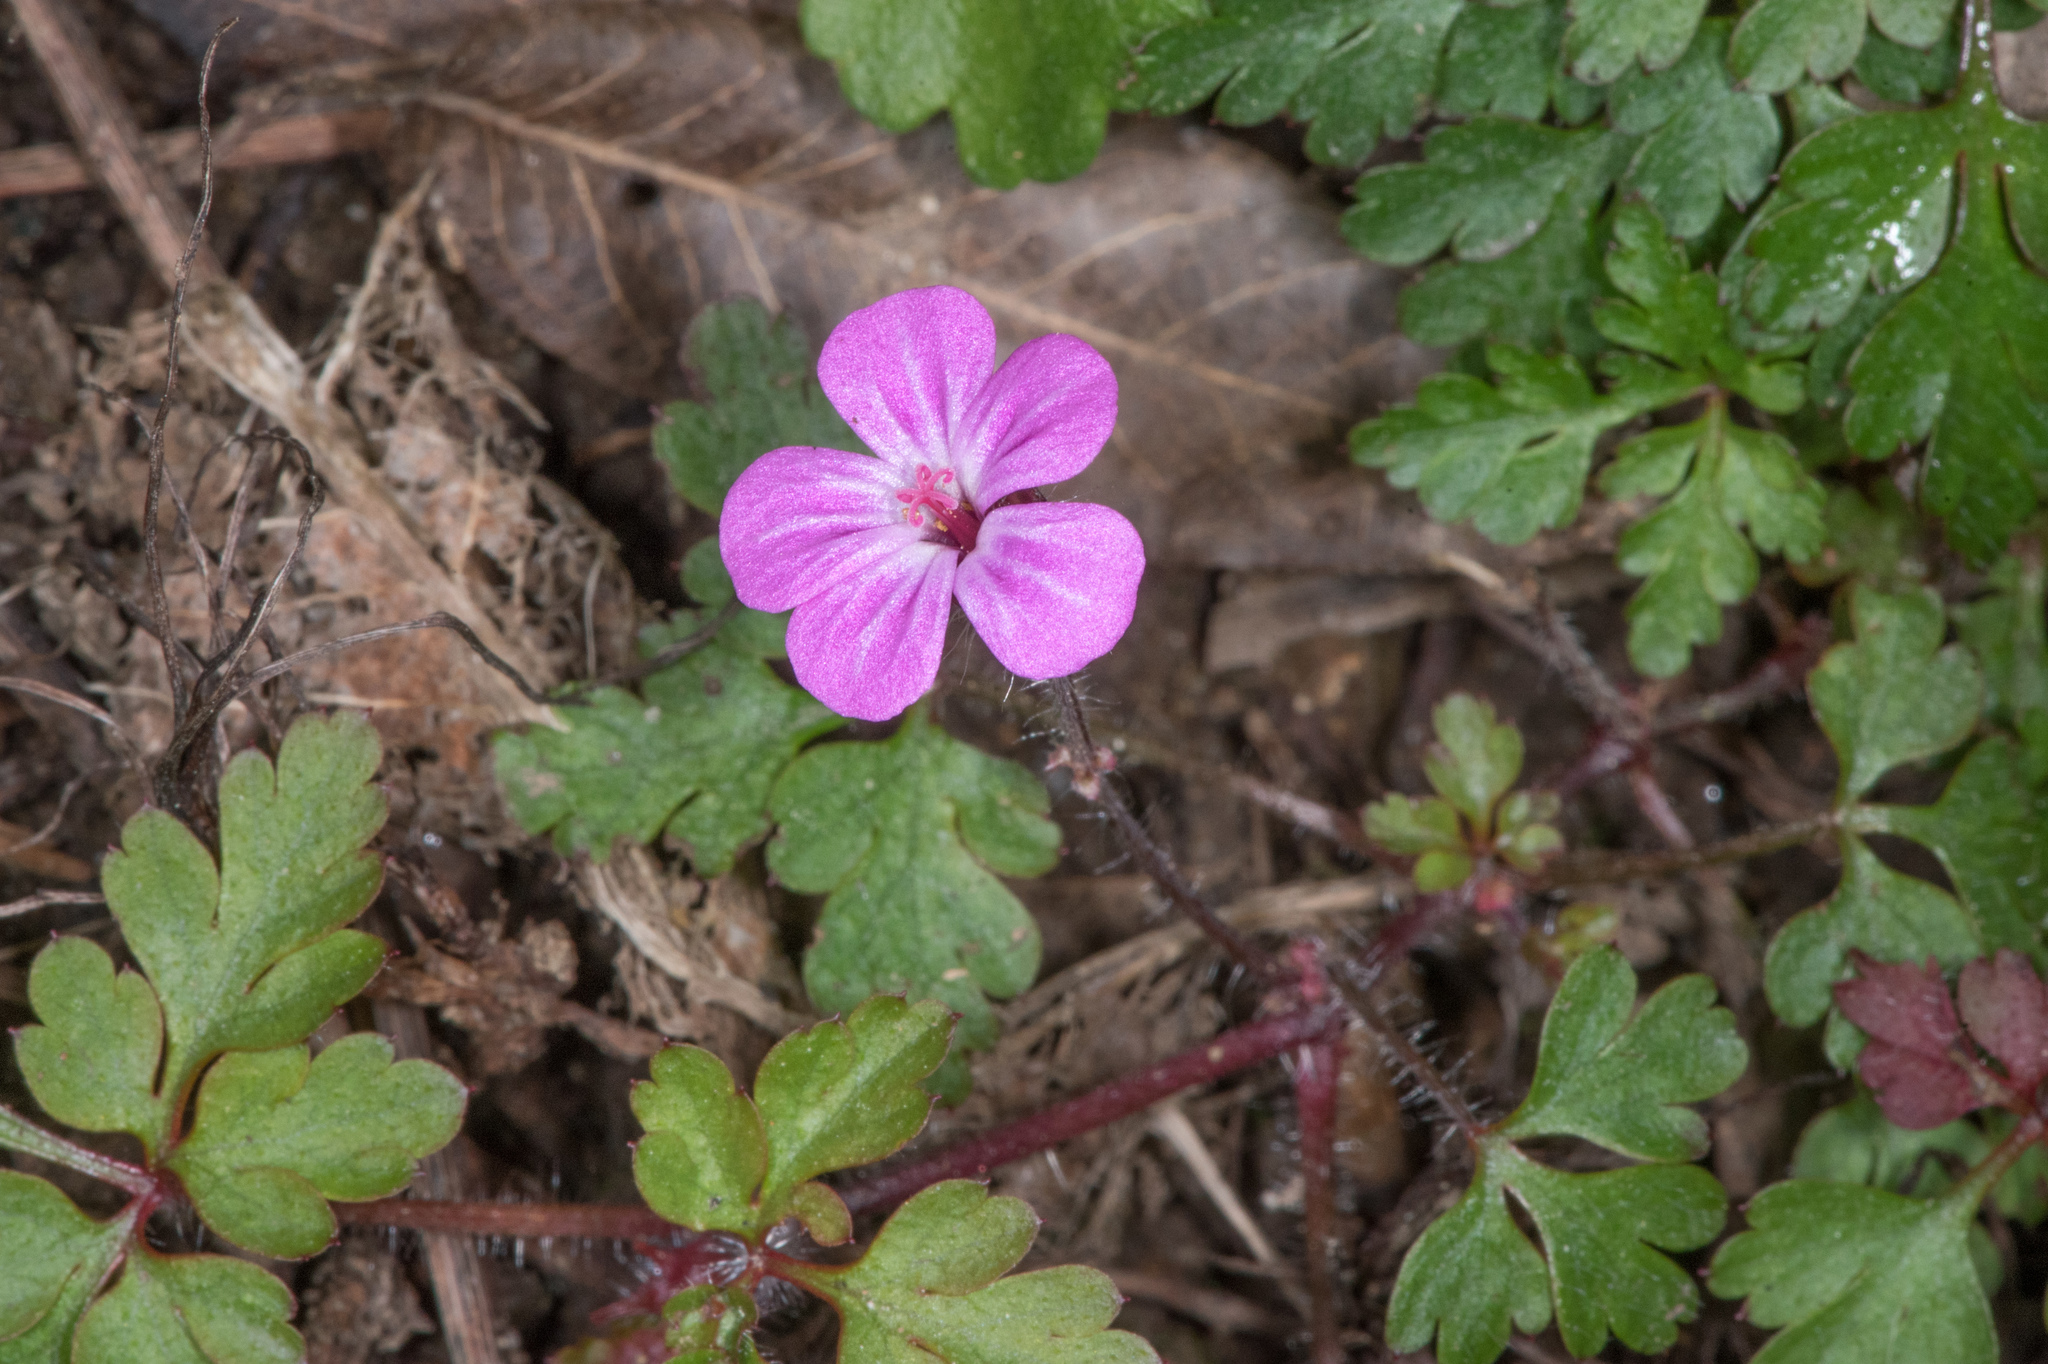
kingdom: Plantae
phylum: Tracheophyta
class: Magnoliopsida
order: Geraniales
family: Geraniaceae
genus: Geranium
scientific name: Geranium robertianum
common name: Herb-robert
